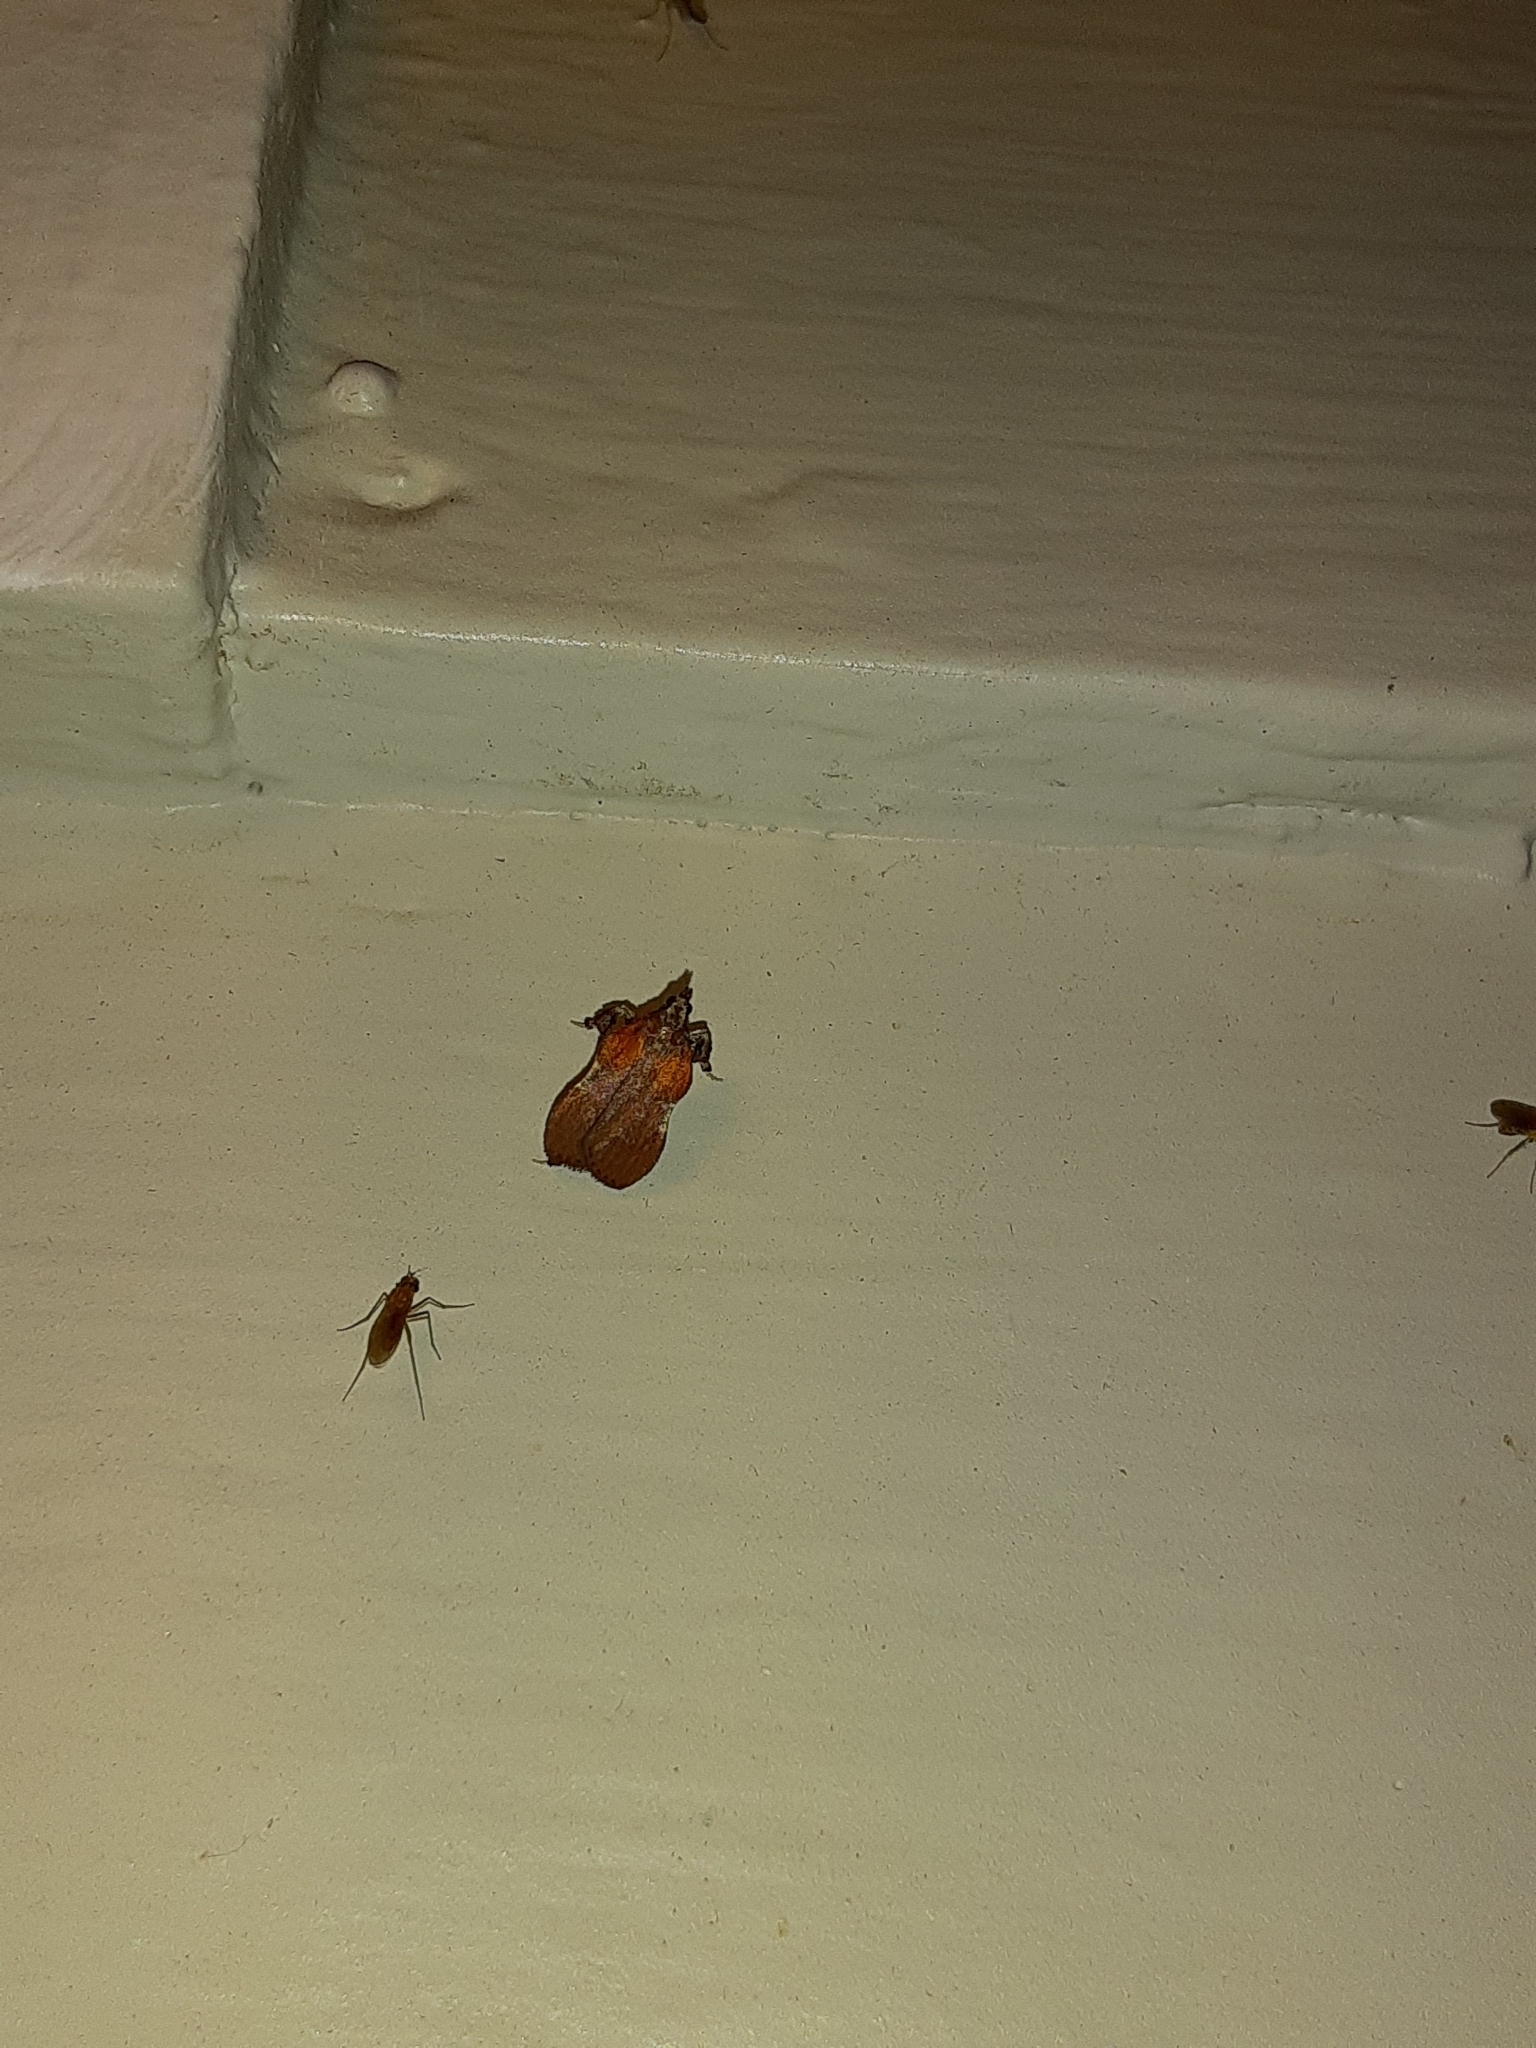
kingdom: Animalia
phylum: Arthropoda
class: Insecta
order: Lepidoptera
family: Pyralidae
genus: Galasa
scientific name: Galasa nigrinodis
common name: Boxwood leaftier moth
